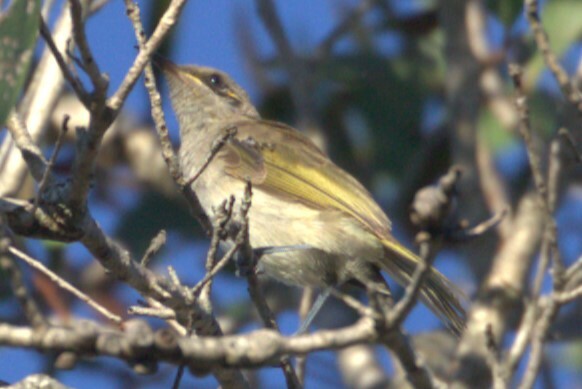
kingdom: Animalia
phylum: Chordata
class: Aves
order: Passeriformes
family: Meliphagidae
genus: Lichmera
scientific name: Lichmera indistincta
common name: Brown honeyeater
